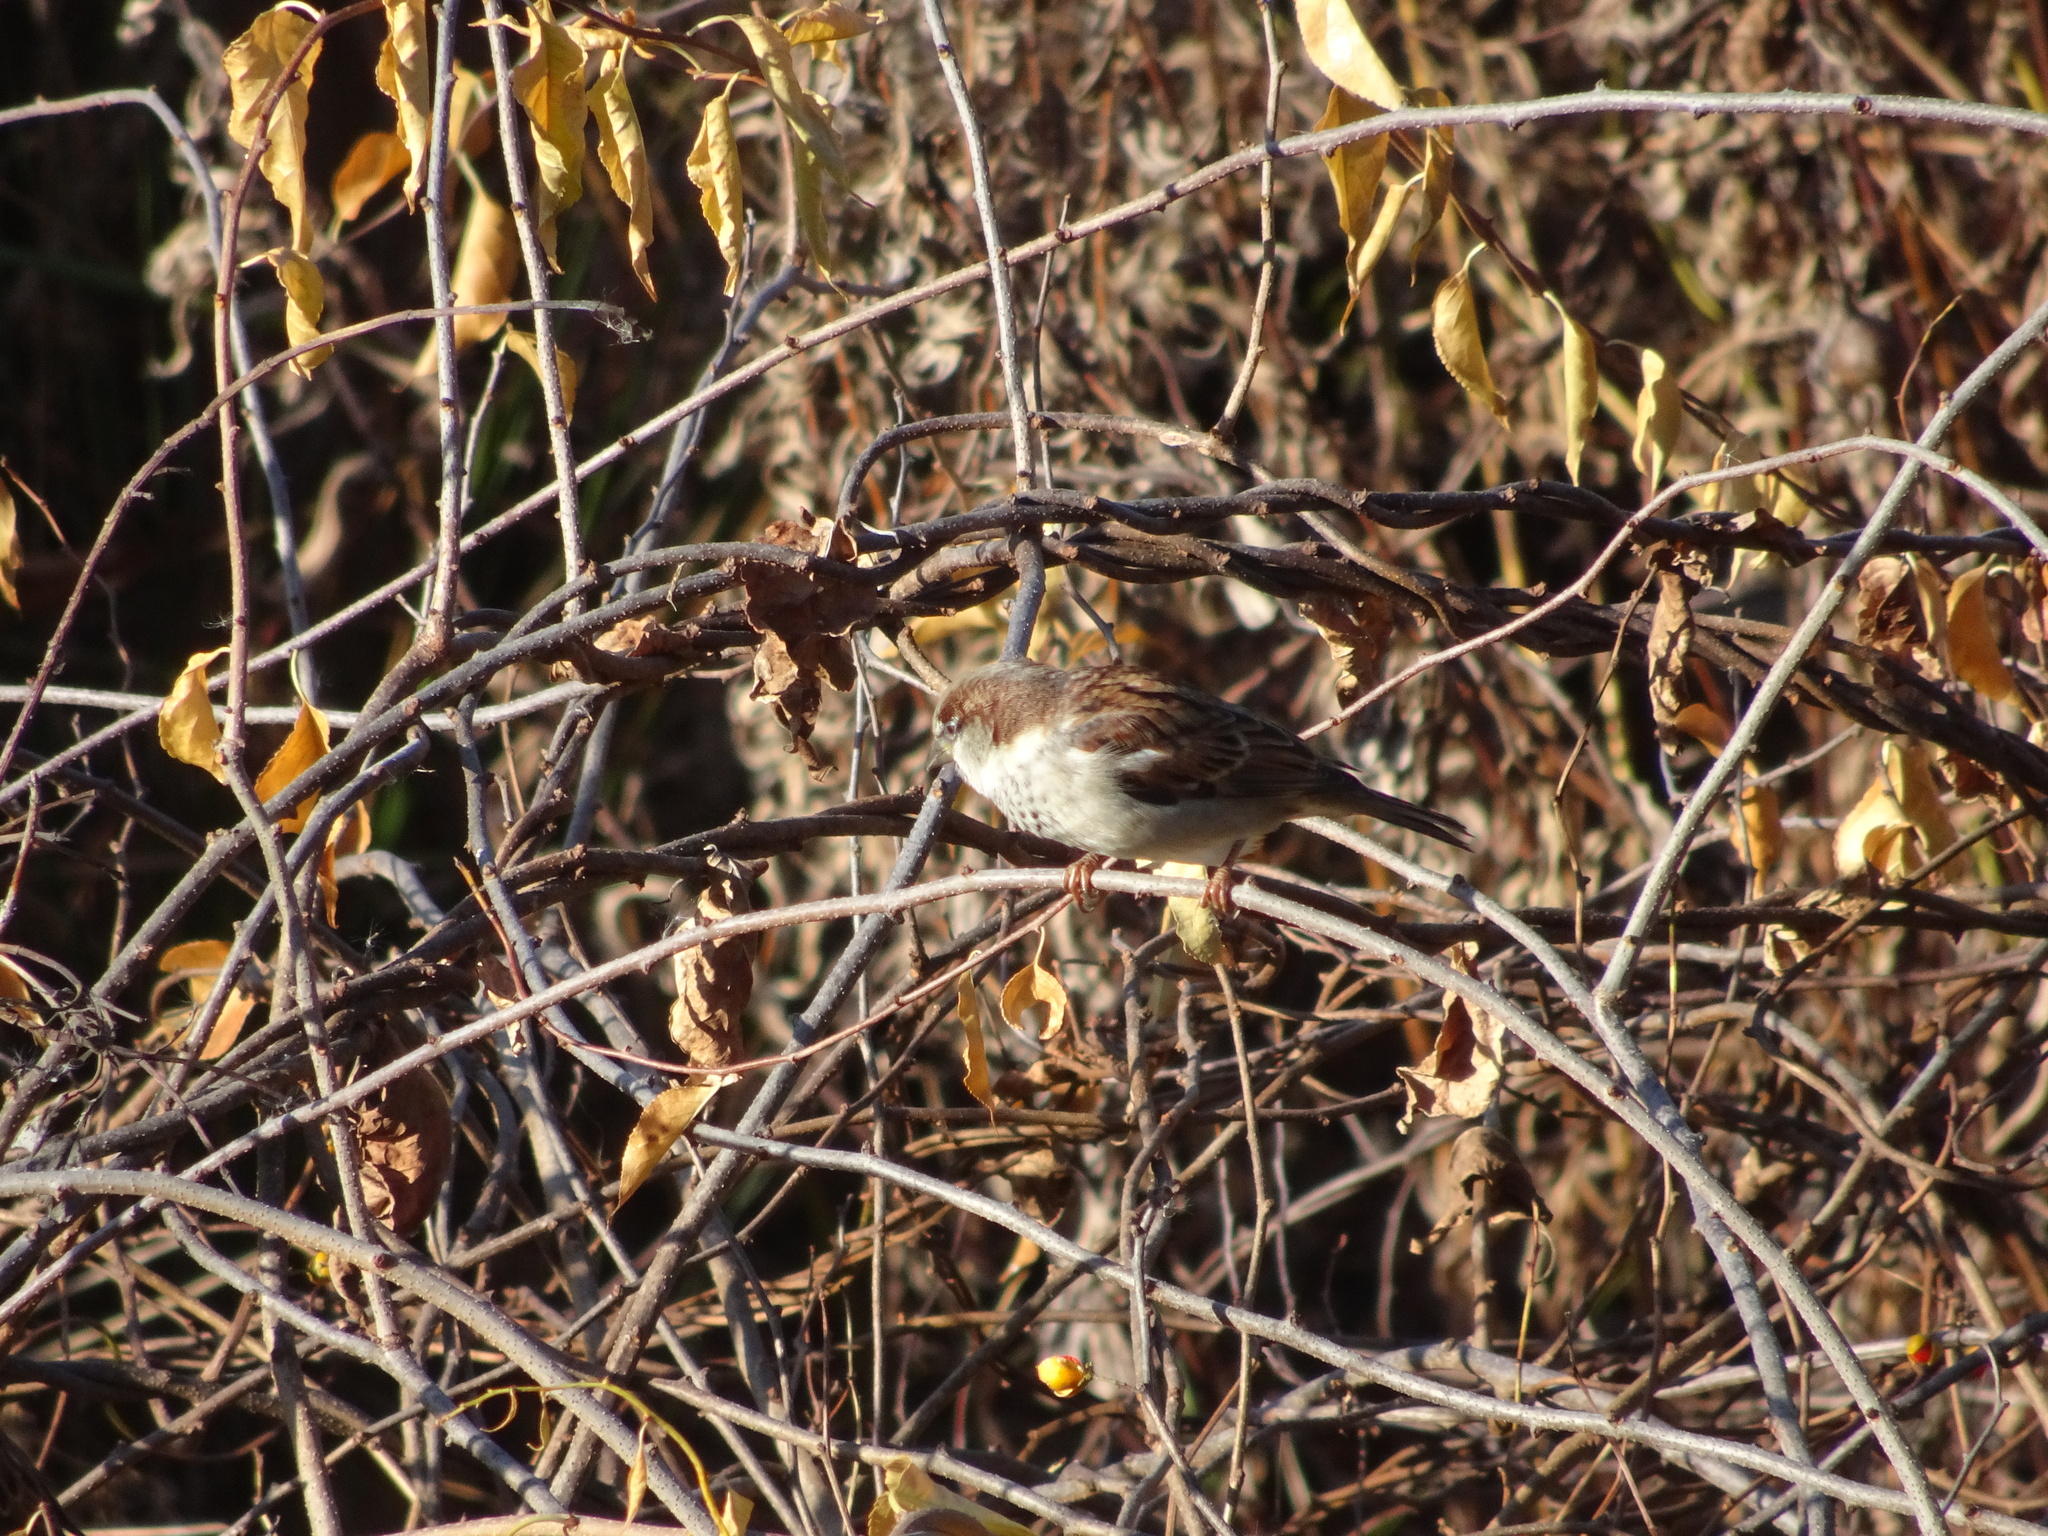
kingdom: Animalia
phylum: Chordata
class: Aves
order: Passeriformes
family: Passeridae
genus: Passer
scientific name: Passer domesticus
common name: House sparrow
